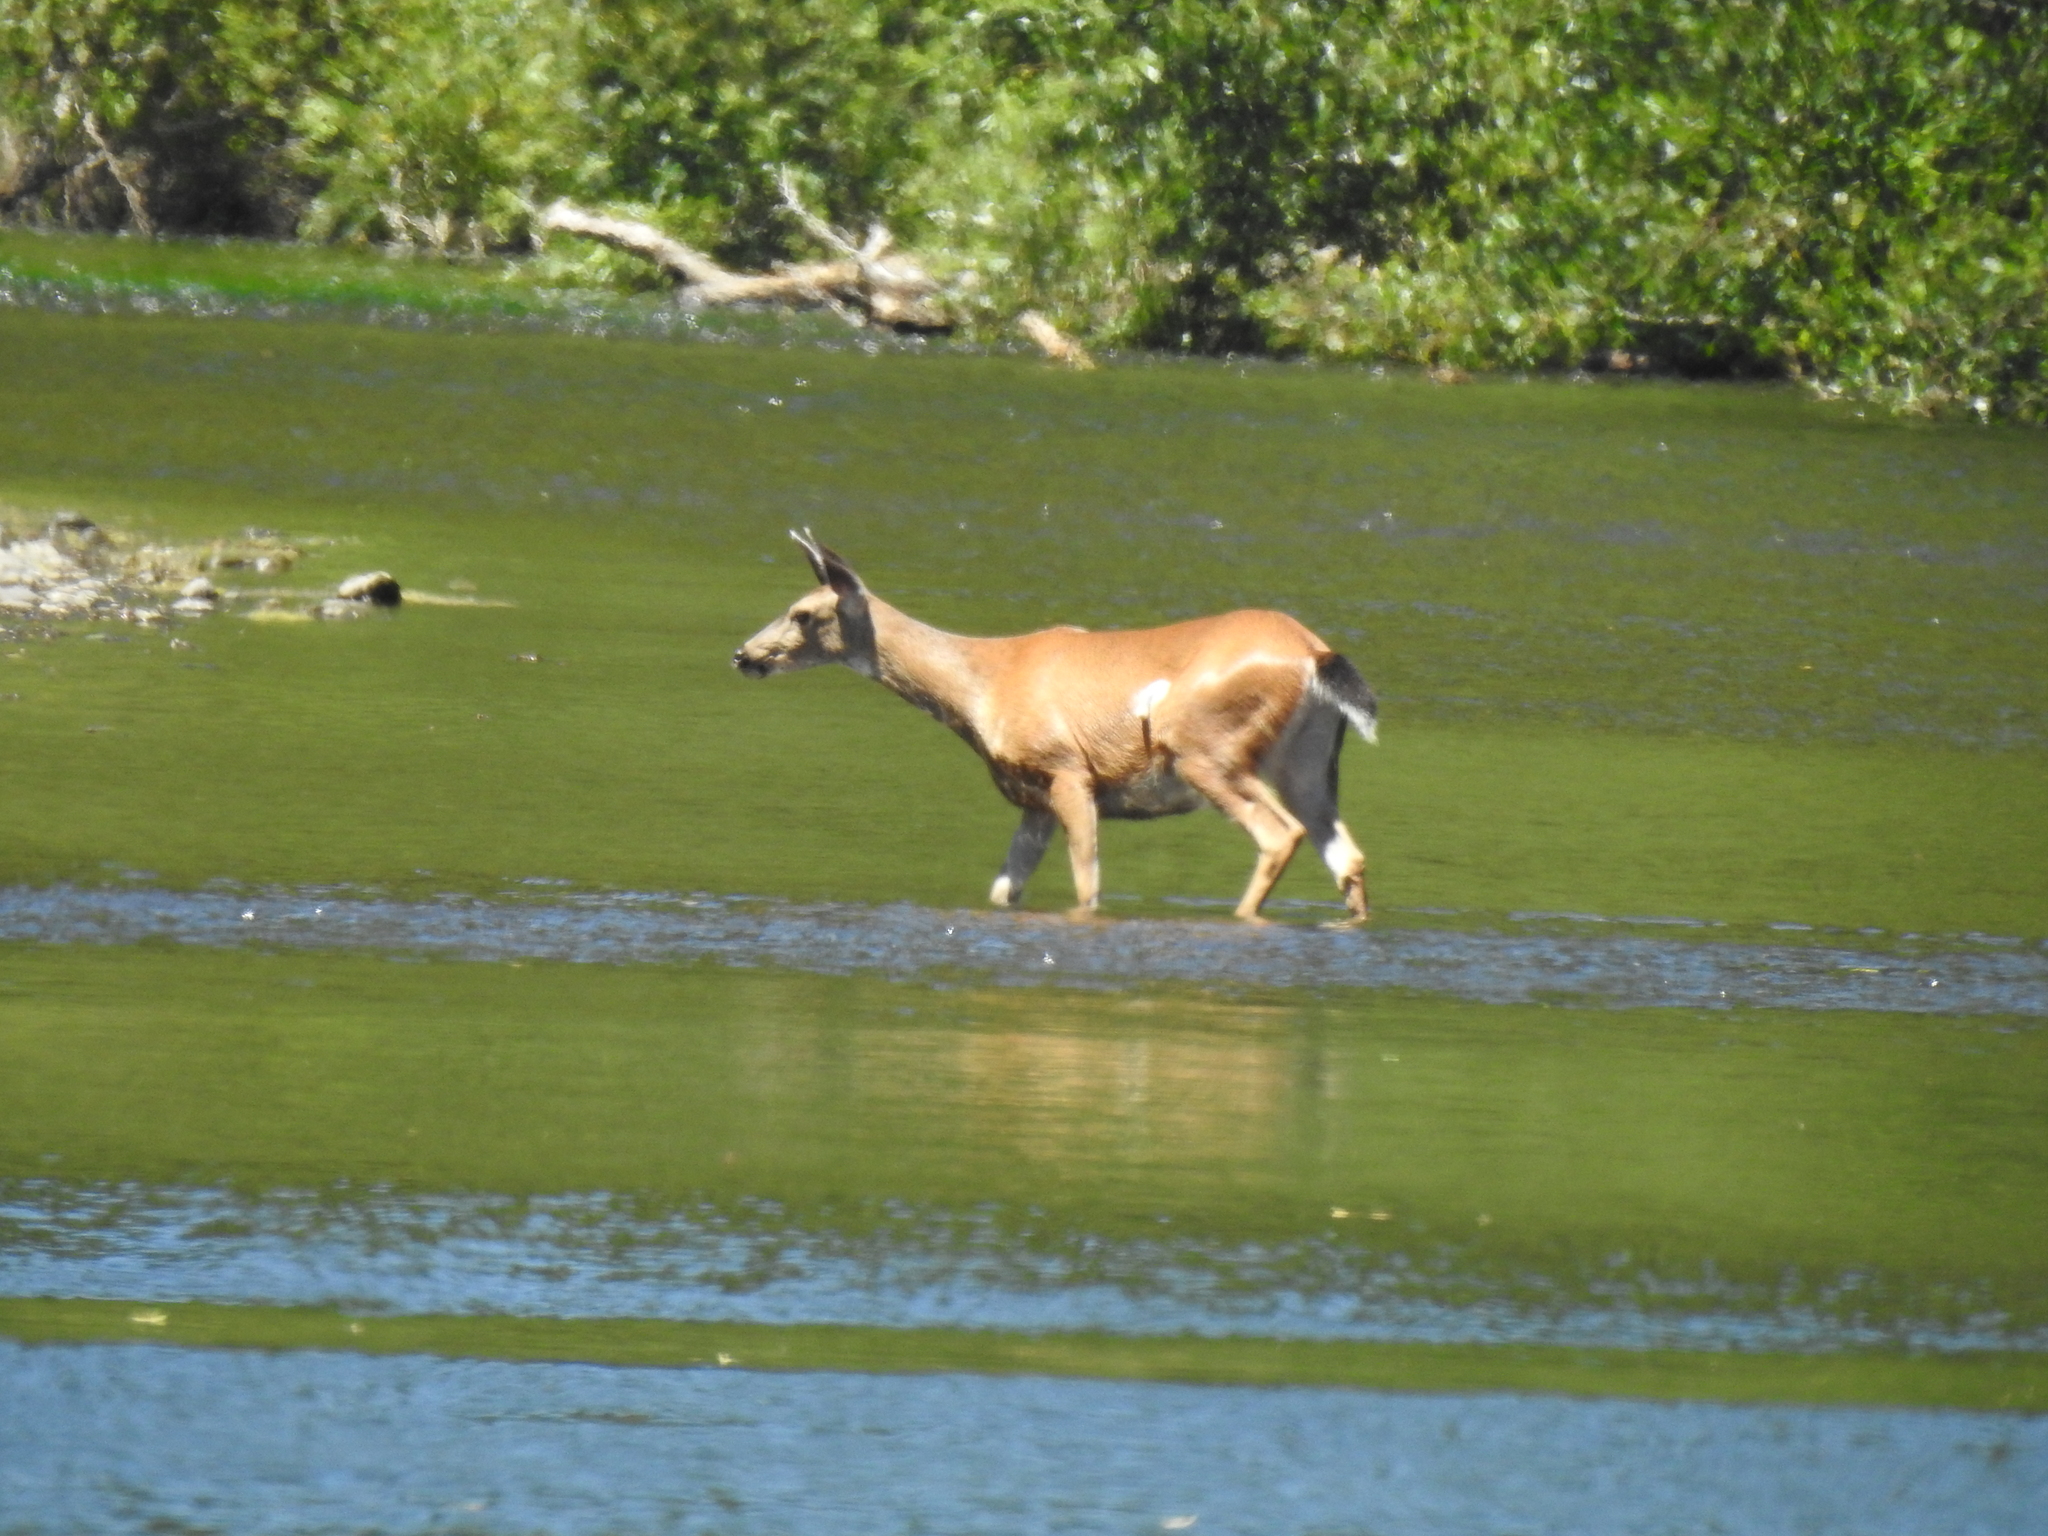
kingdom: Animalia
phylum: Chordata
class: Mammalia
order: Artiodactyla
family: Cervidae
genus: Odocoileus
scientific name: Odocoileus hemionus
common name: Mule deer
